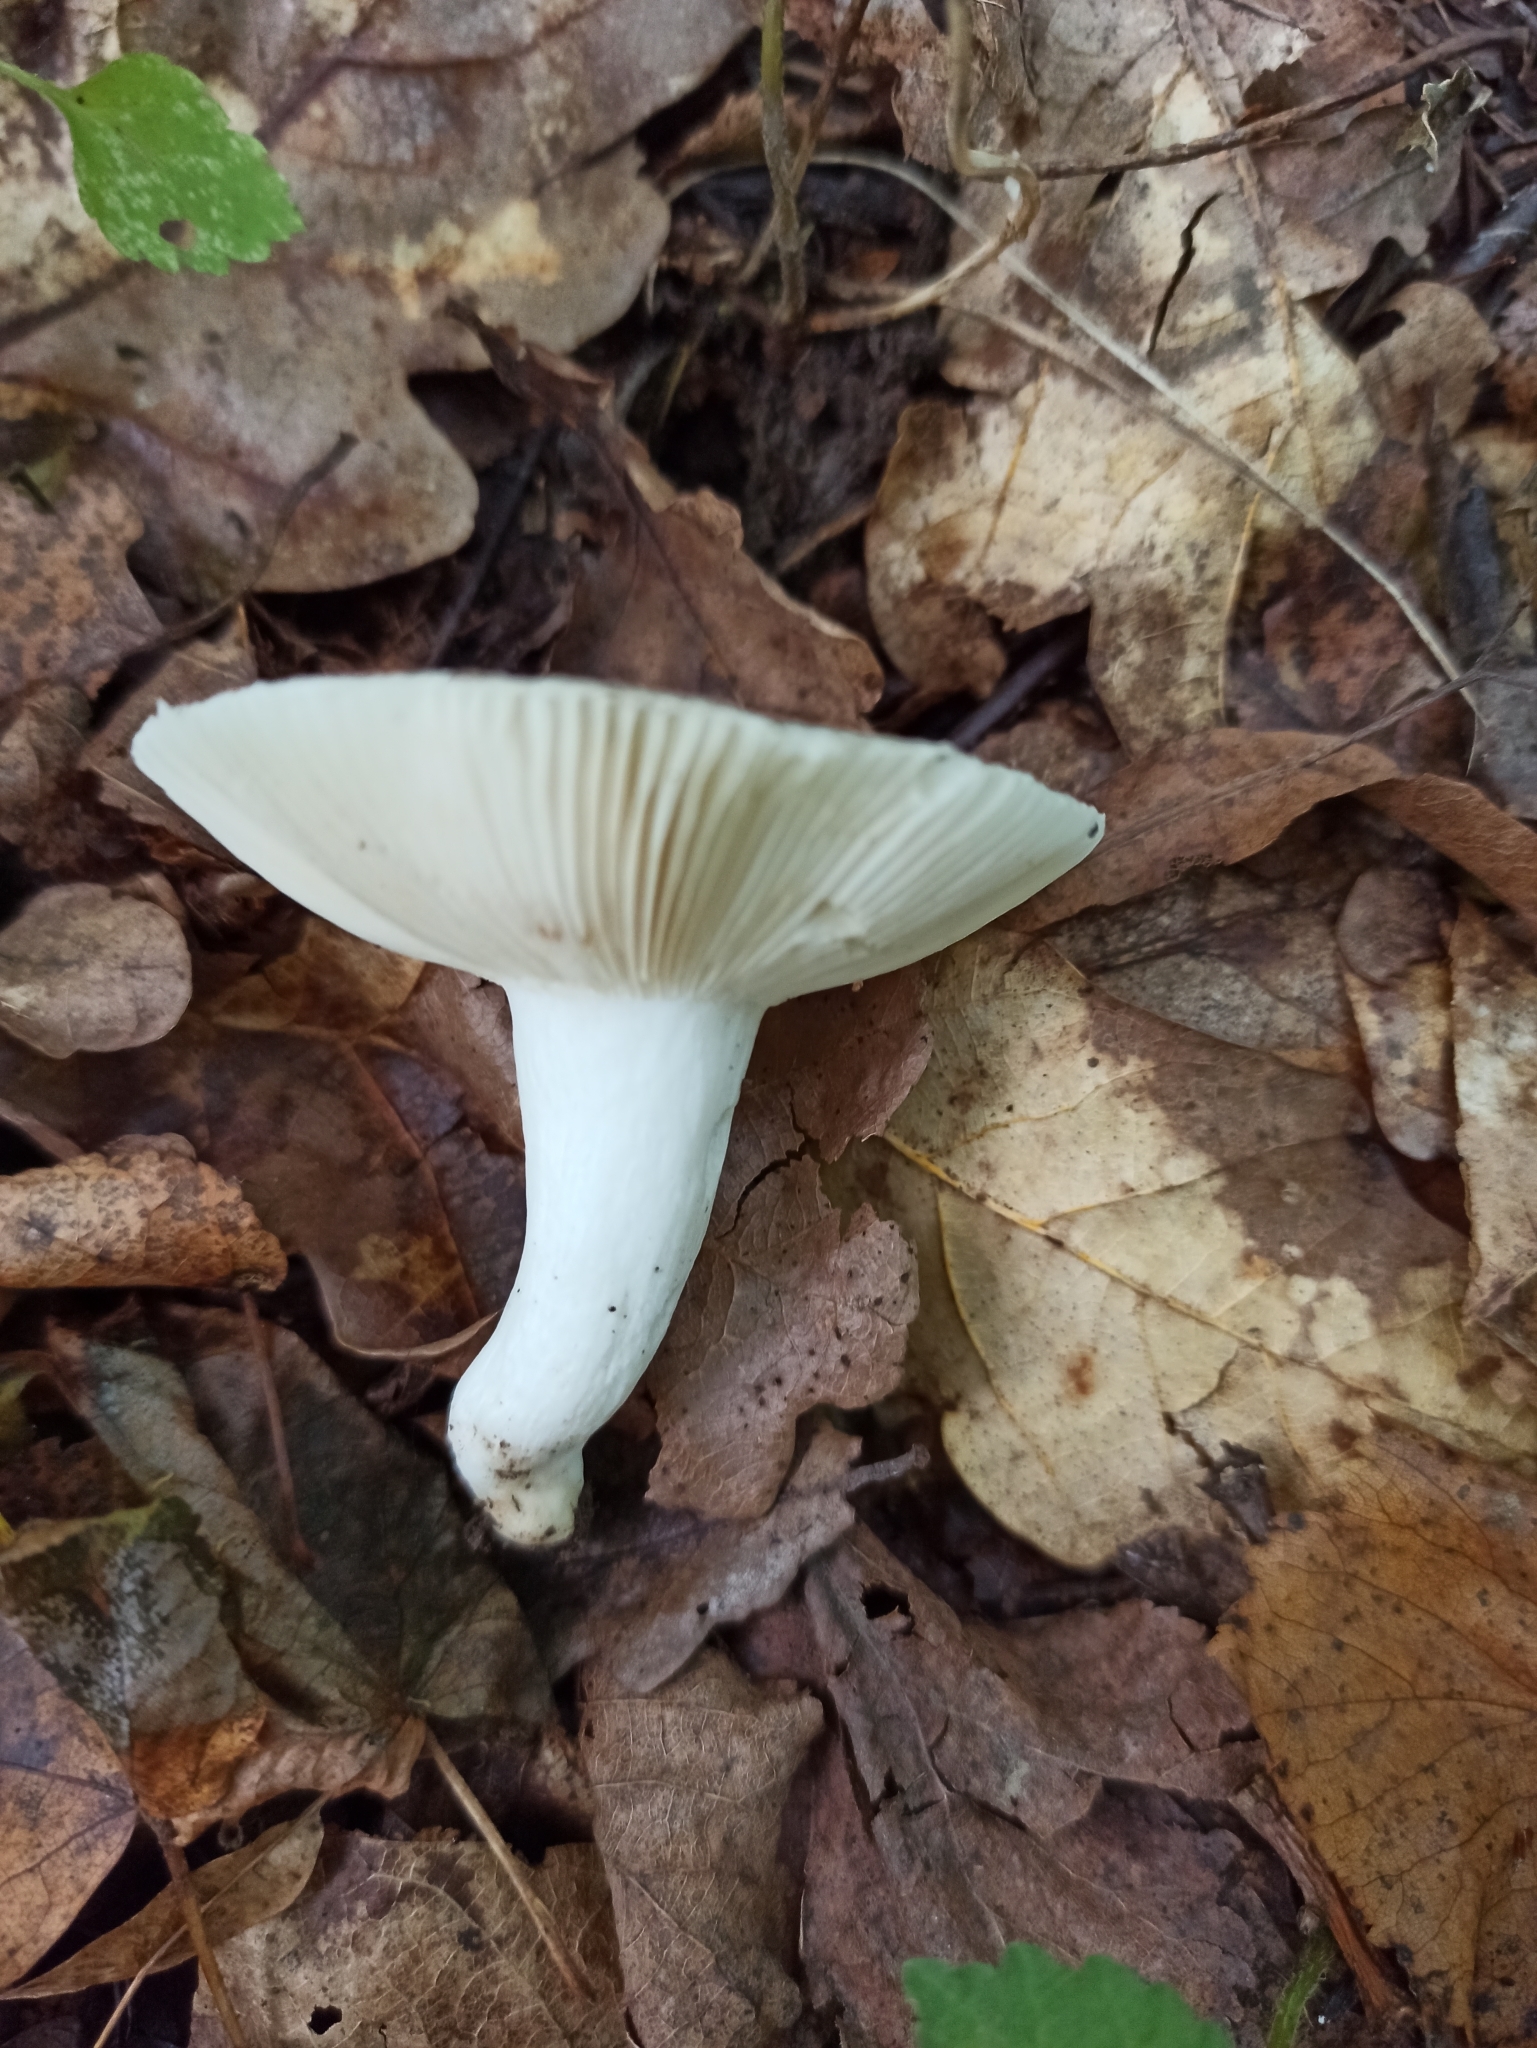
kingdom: Fungi
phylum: Basidiomycota
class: Agaricomycetes
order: Russulales
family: Russulaceae
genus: Russula
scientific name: Russula aeruginea
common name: Green brittlegill
